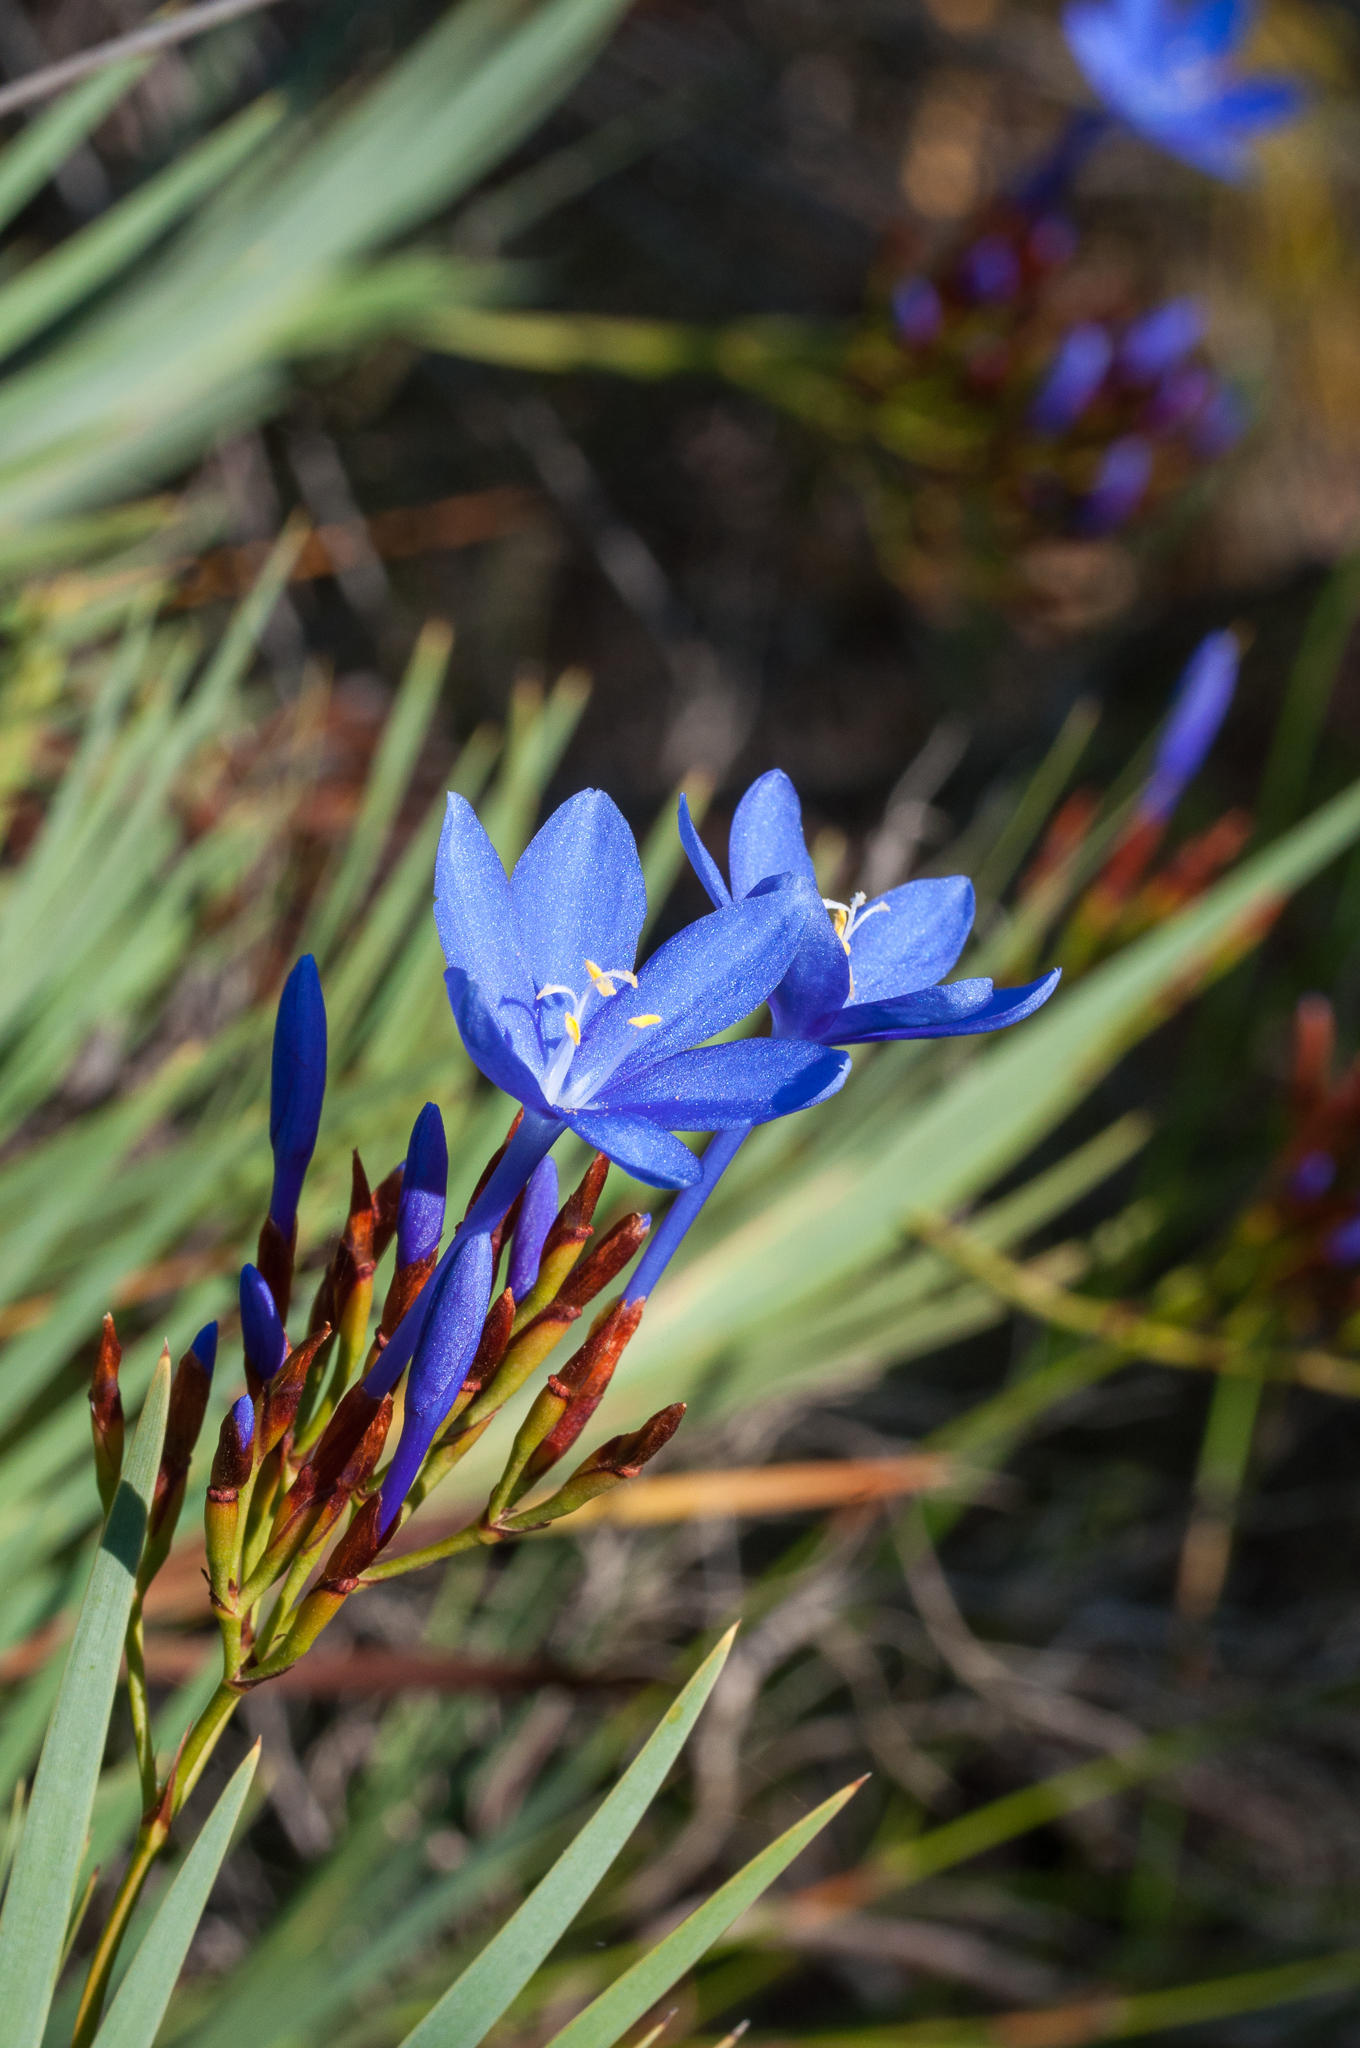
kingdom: Plantae
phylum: Tracheophyta
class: Liliopsida
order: Asparagales
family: Iridaceae
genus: Nivenia
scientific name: Nivenia stokoei
